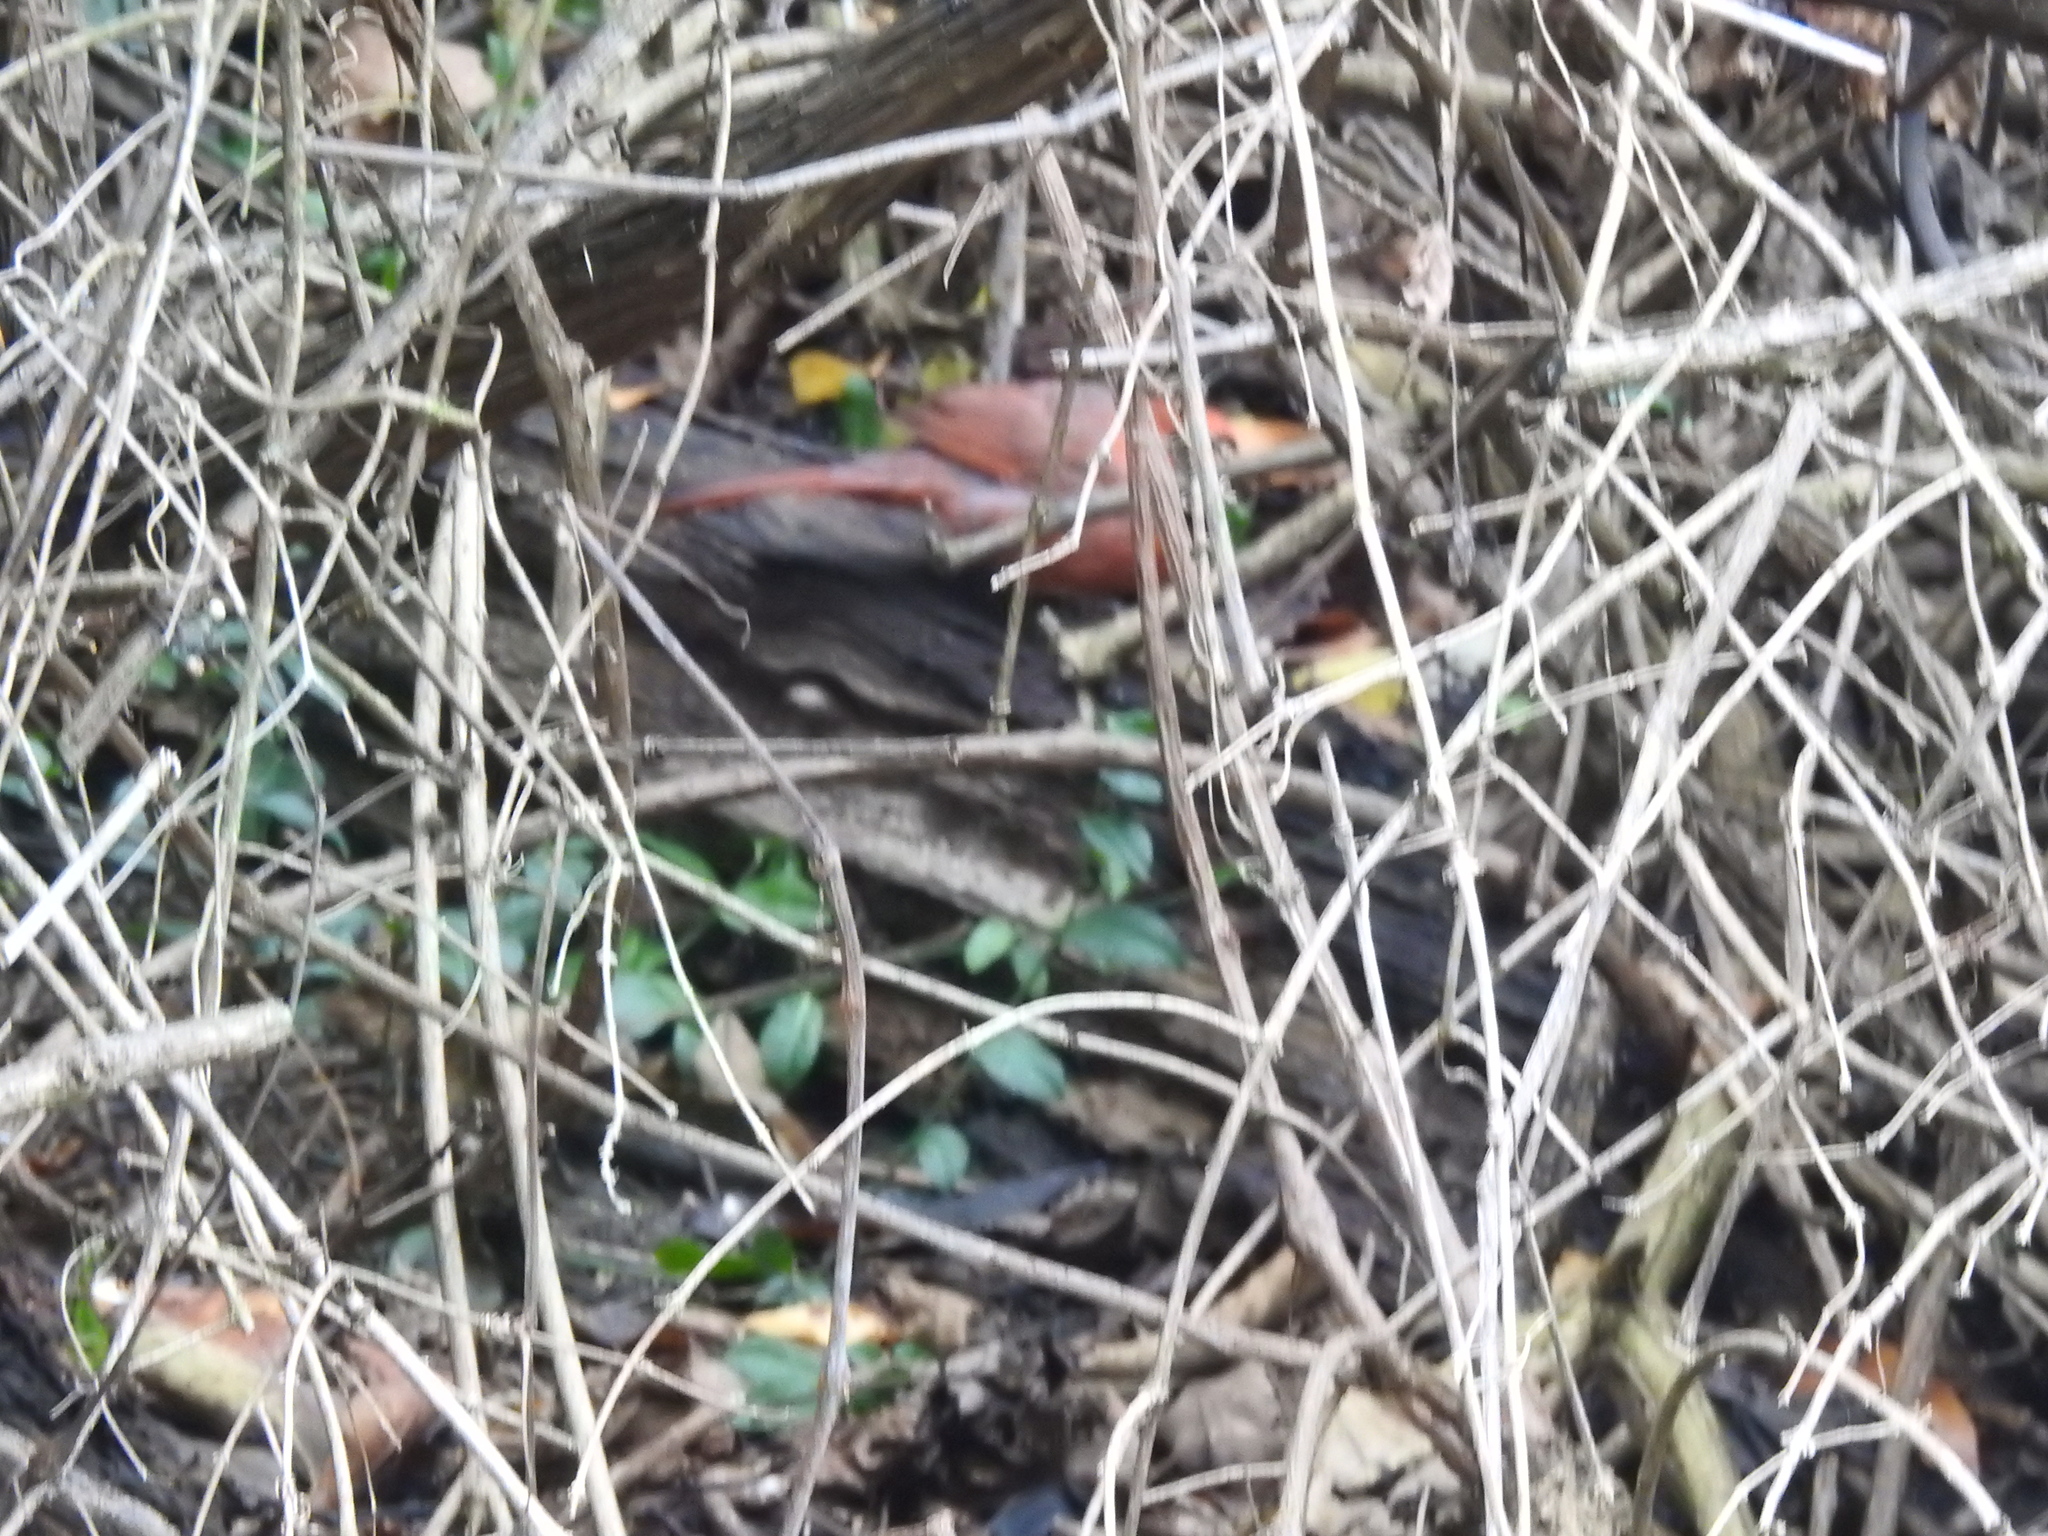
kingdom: Animalia
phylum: Chordata
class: Aves
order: Passeriformes
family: Cardinalidae
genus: Cardinalis
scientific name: Cardinalis cardinalis
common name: Northern cardinal
